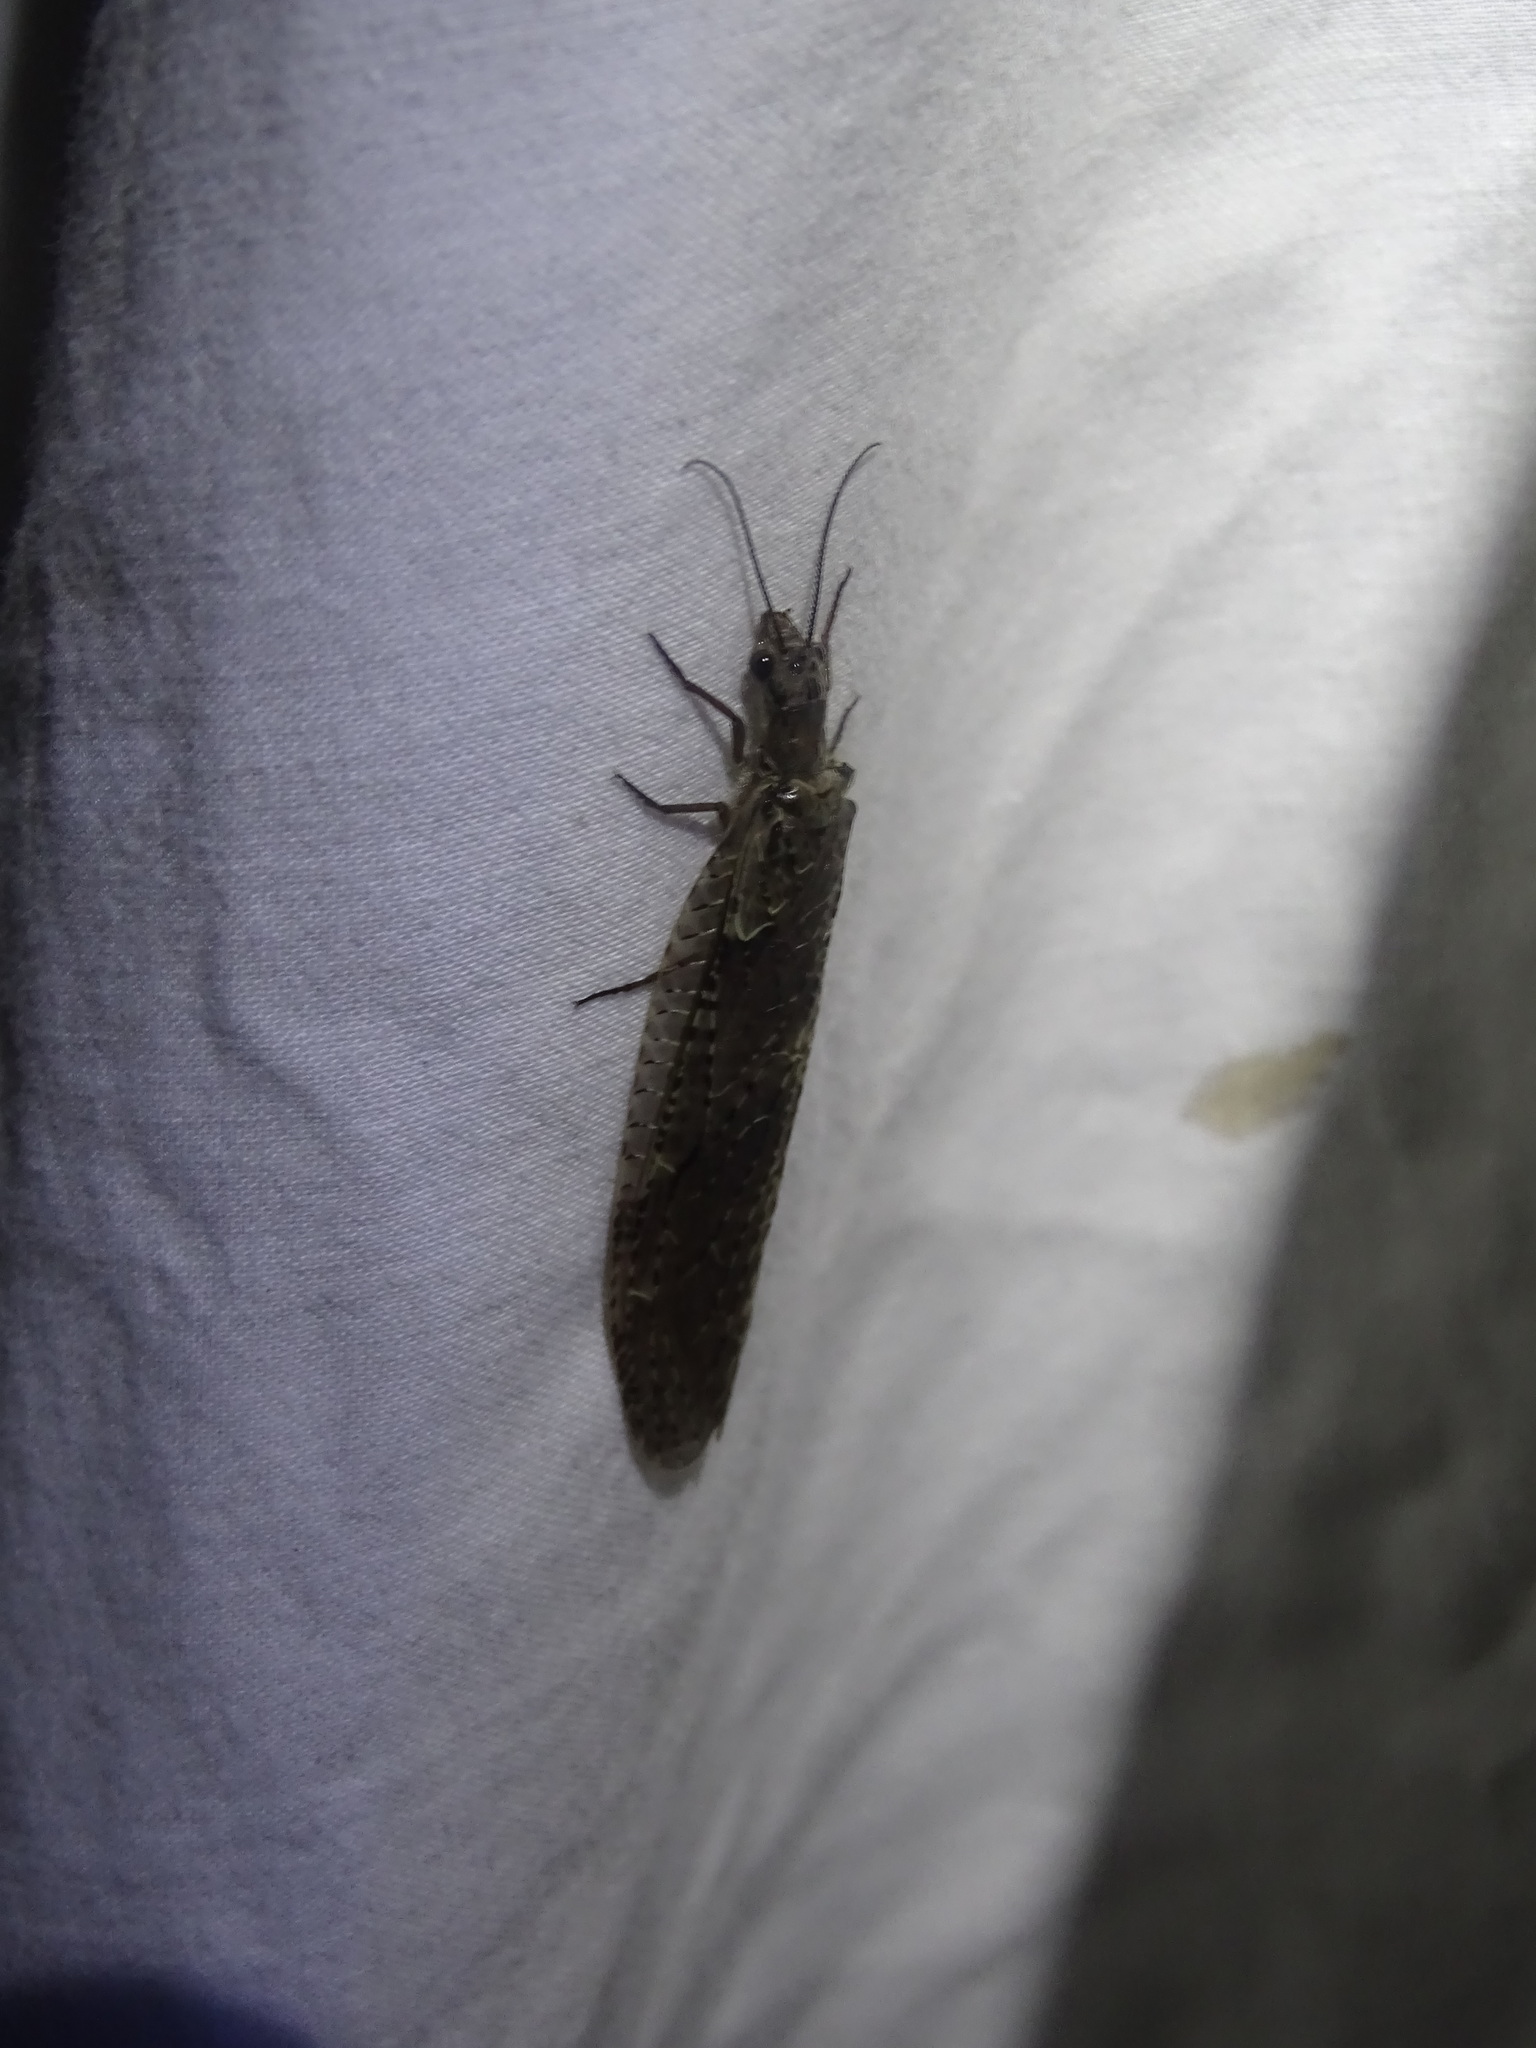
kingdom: Animalia
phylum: Arthropoda
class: Insecta
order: Megaloptera
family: Corydalidae
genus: Chauliodes
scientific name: Chauliodes rastricornis
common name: Spring fishfly
